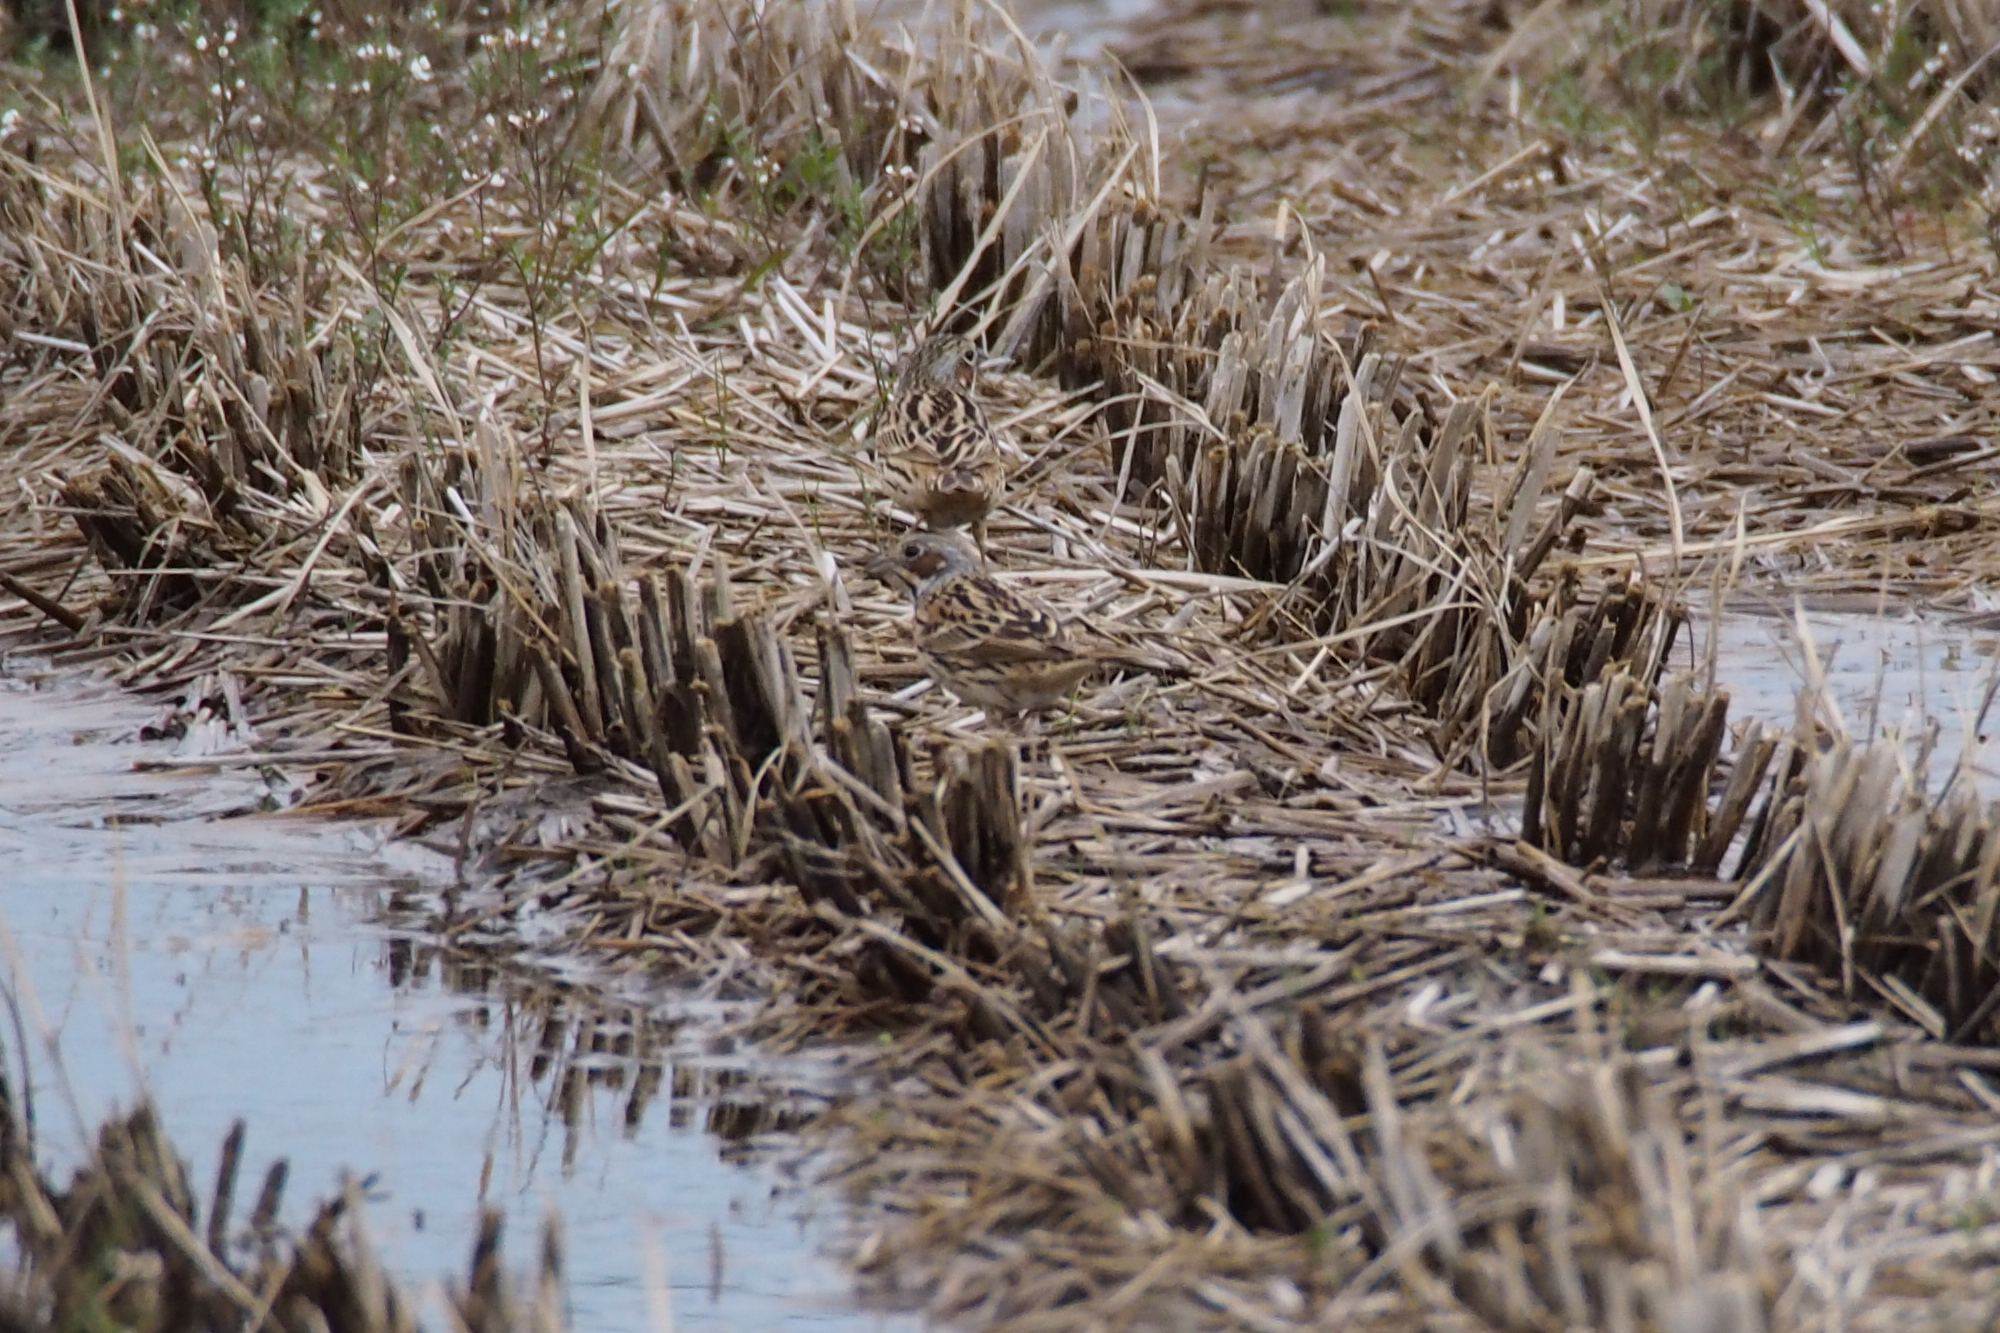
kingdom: Animalia
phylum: Chordata
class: Aves
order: Passeriformes
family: Emberizidae
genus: Emberiza
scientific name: Emberiza fucata
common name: Chestnut-eared bunting
